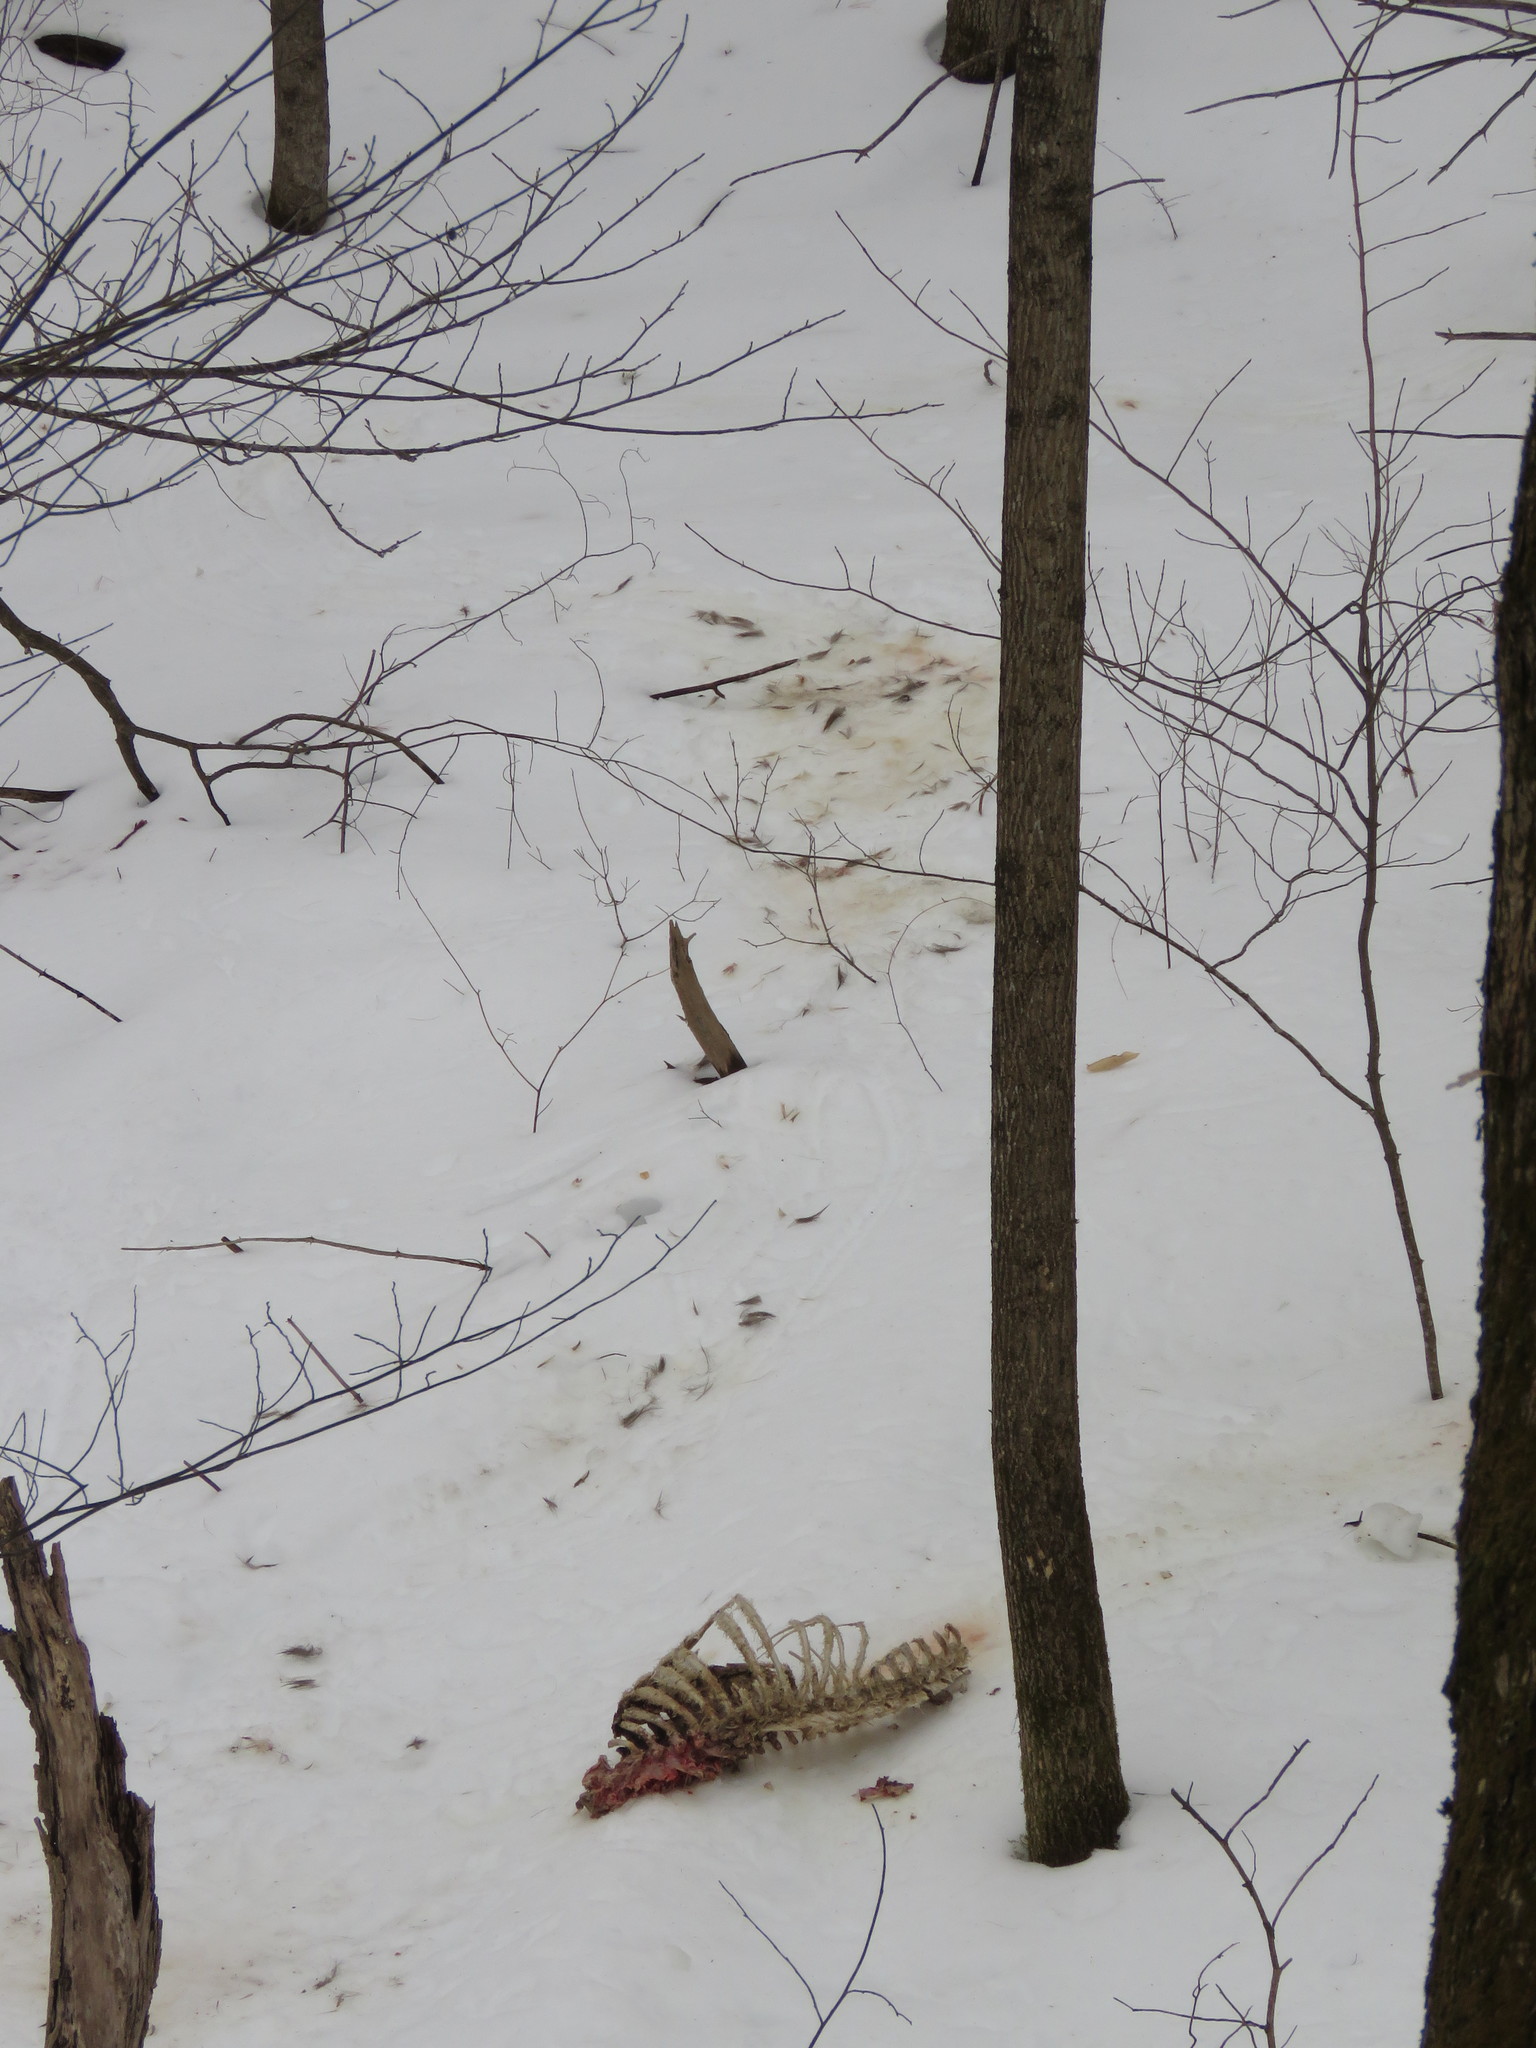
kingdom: Animalia
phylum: Chordata
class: Mammalia
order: Artiodactyla
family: Cervidae
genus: Odocoileus
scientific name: Odocoileus virginianus
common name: White-tailed deer
